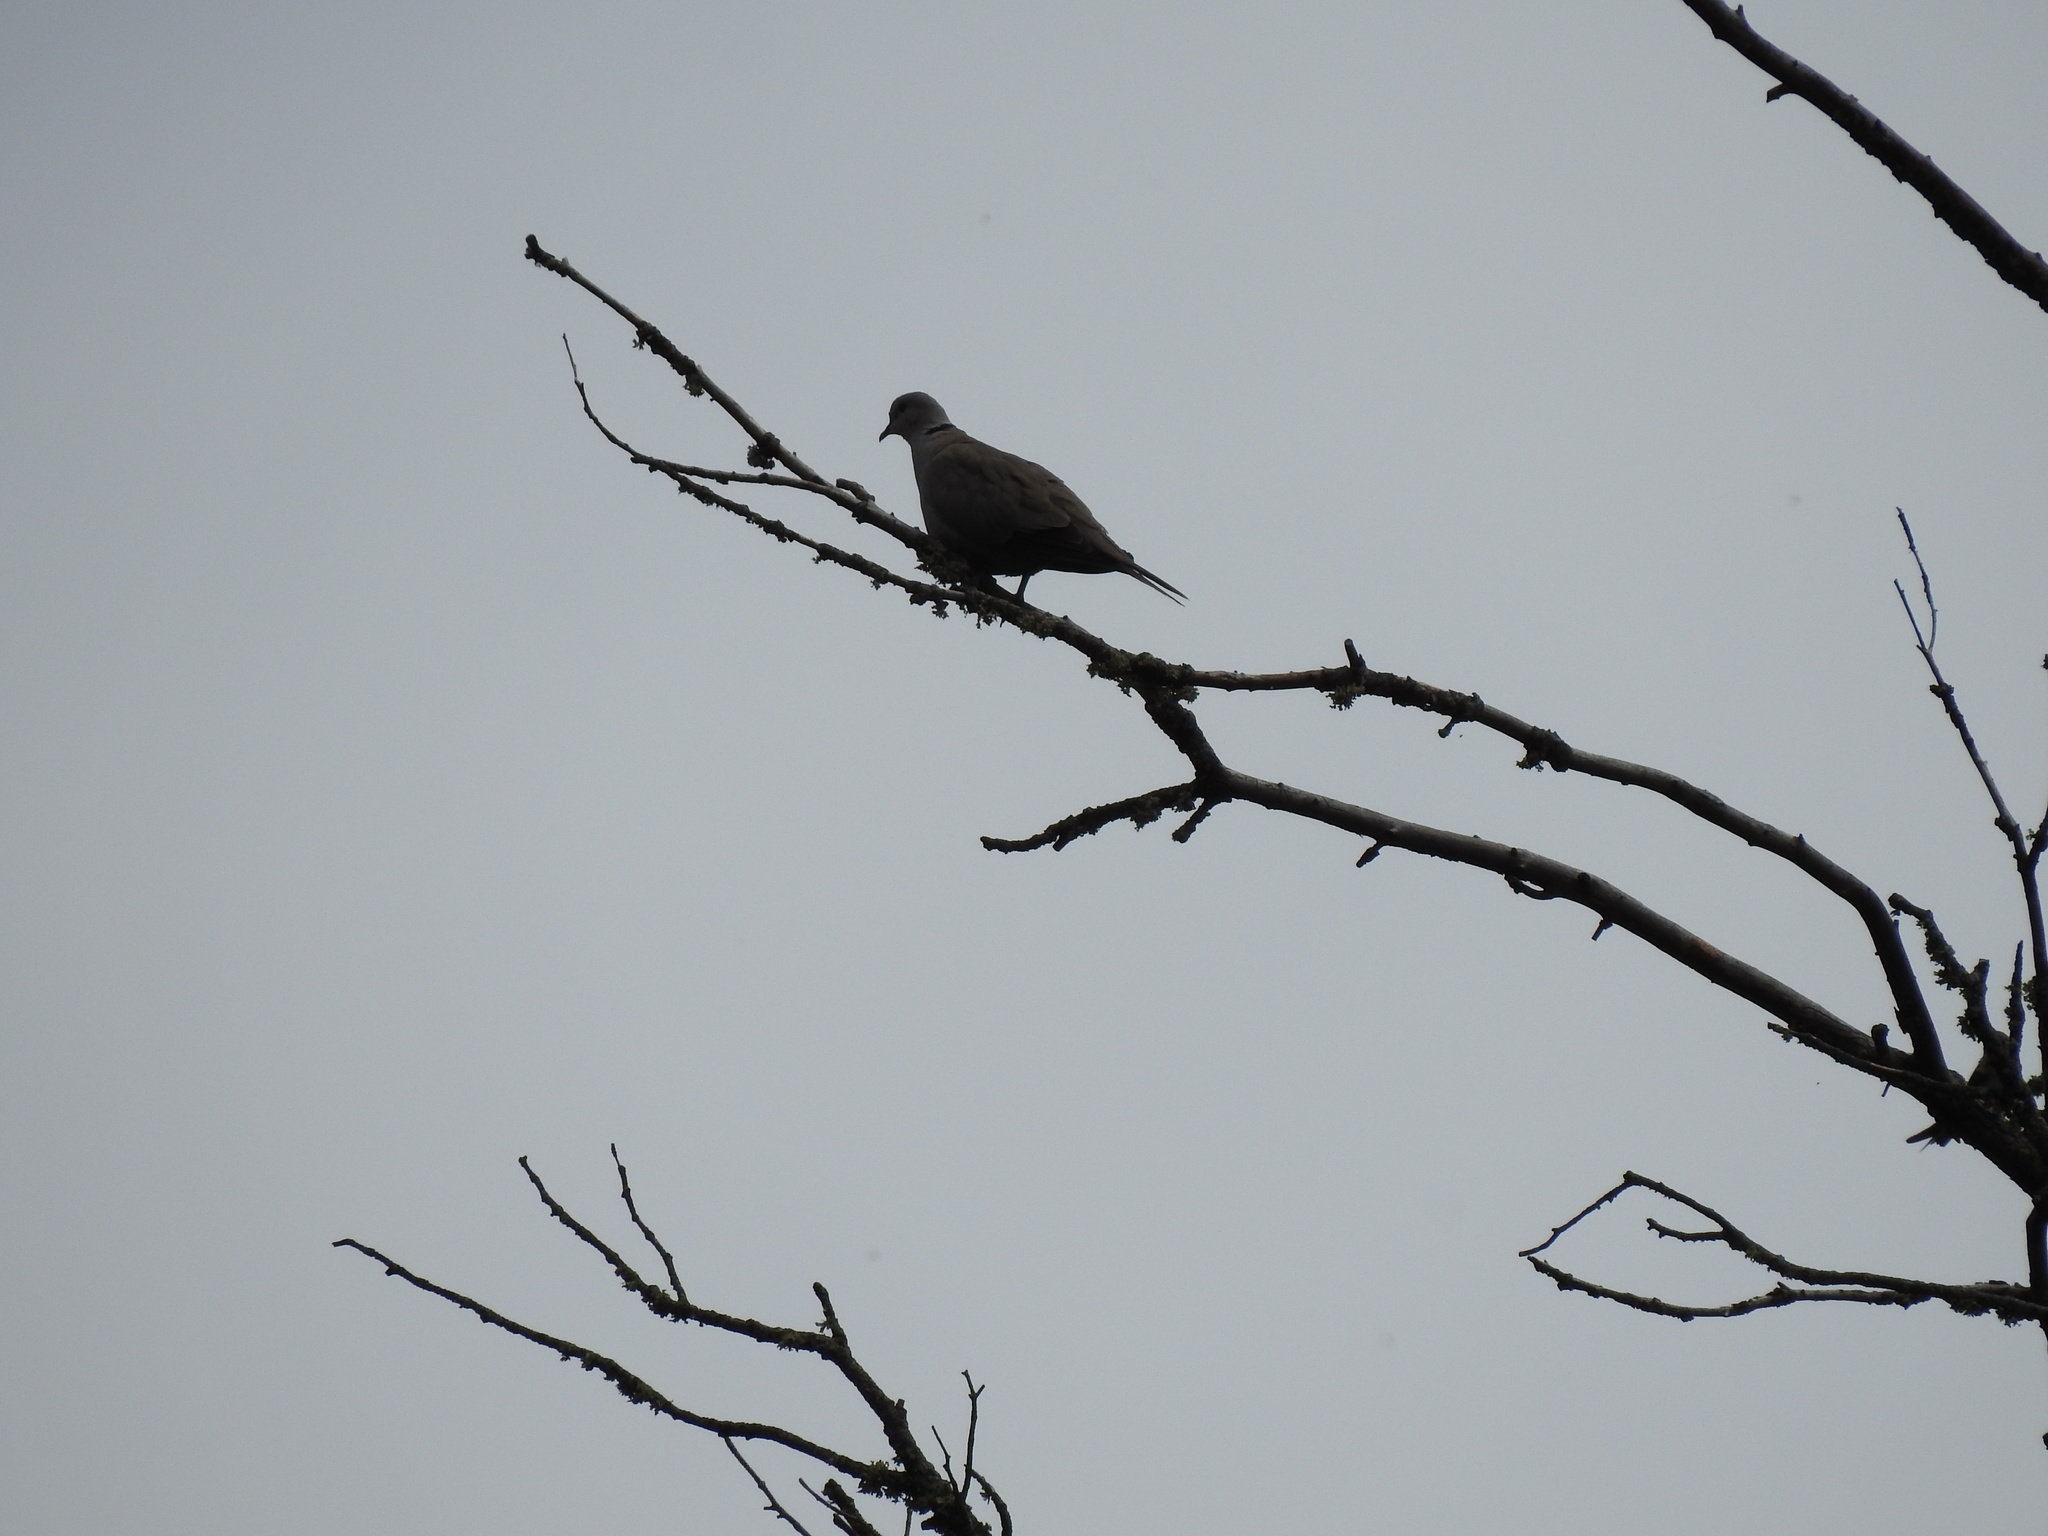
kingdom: Animalia
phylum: Chordata
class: Aves
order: Columbiformes
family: Columbidae
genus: Streptopelia
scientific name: Streptopelia decaocto
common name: Eurasian collared dove
